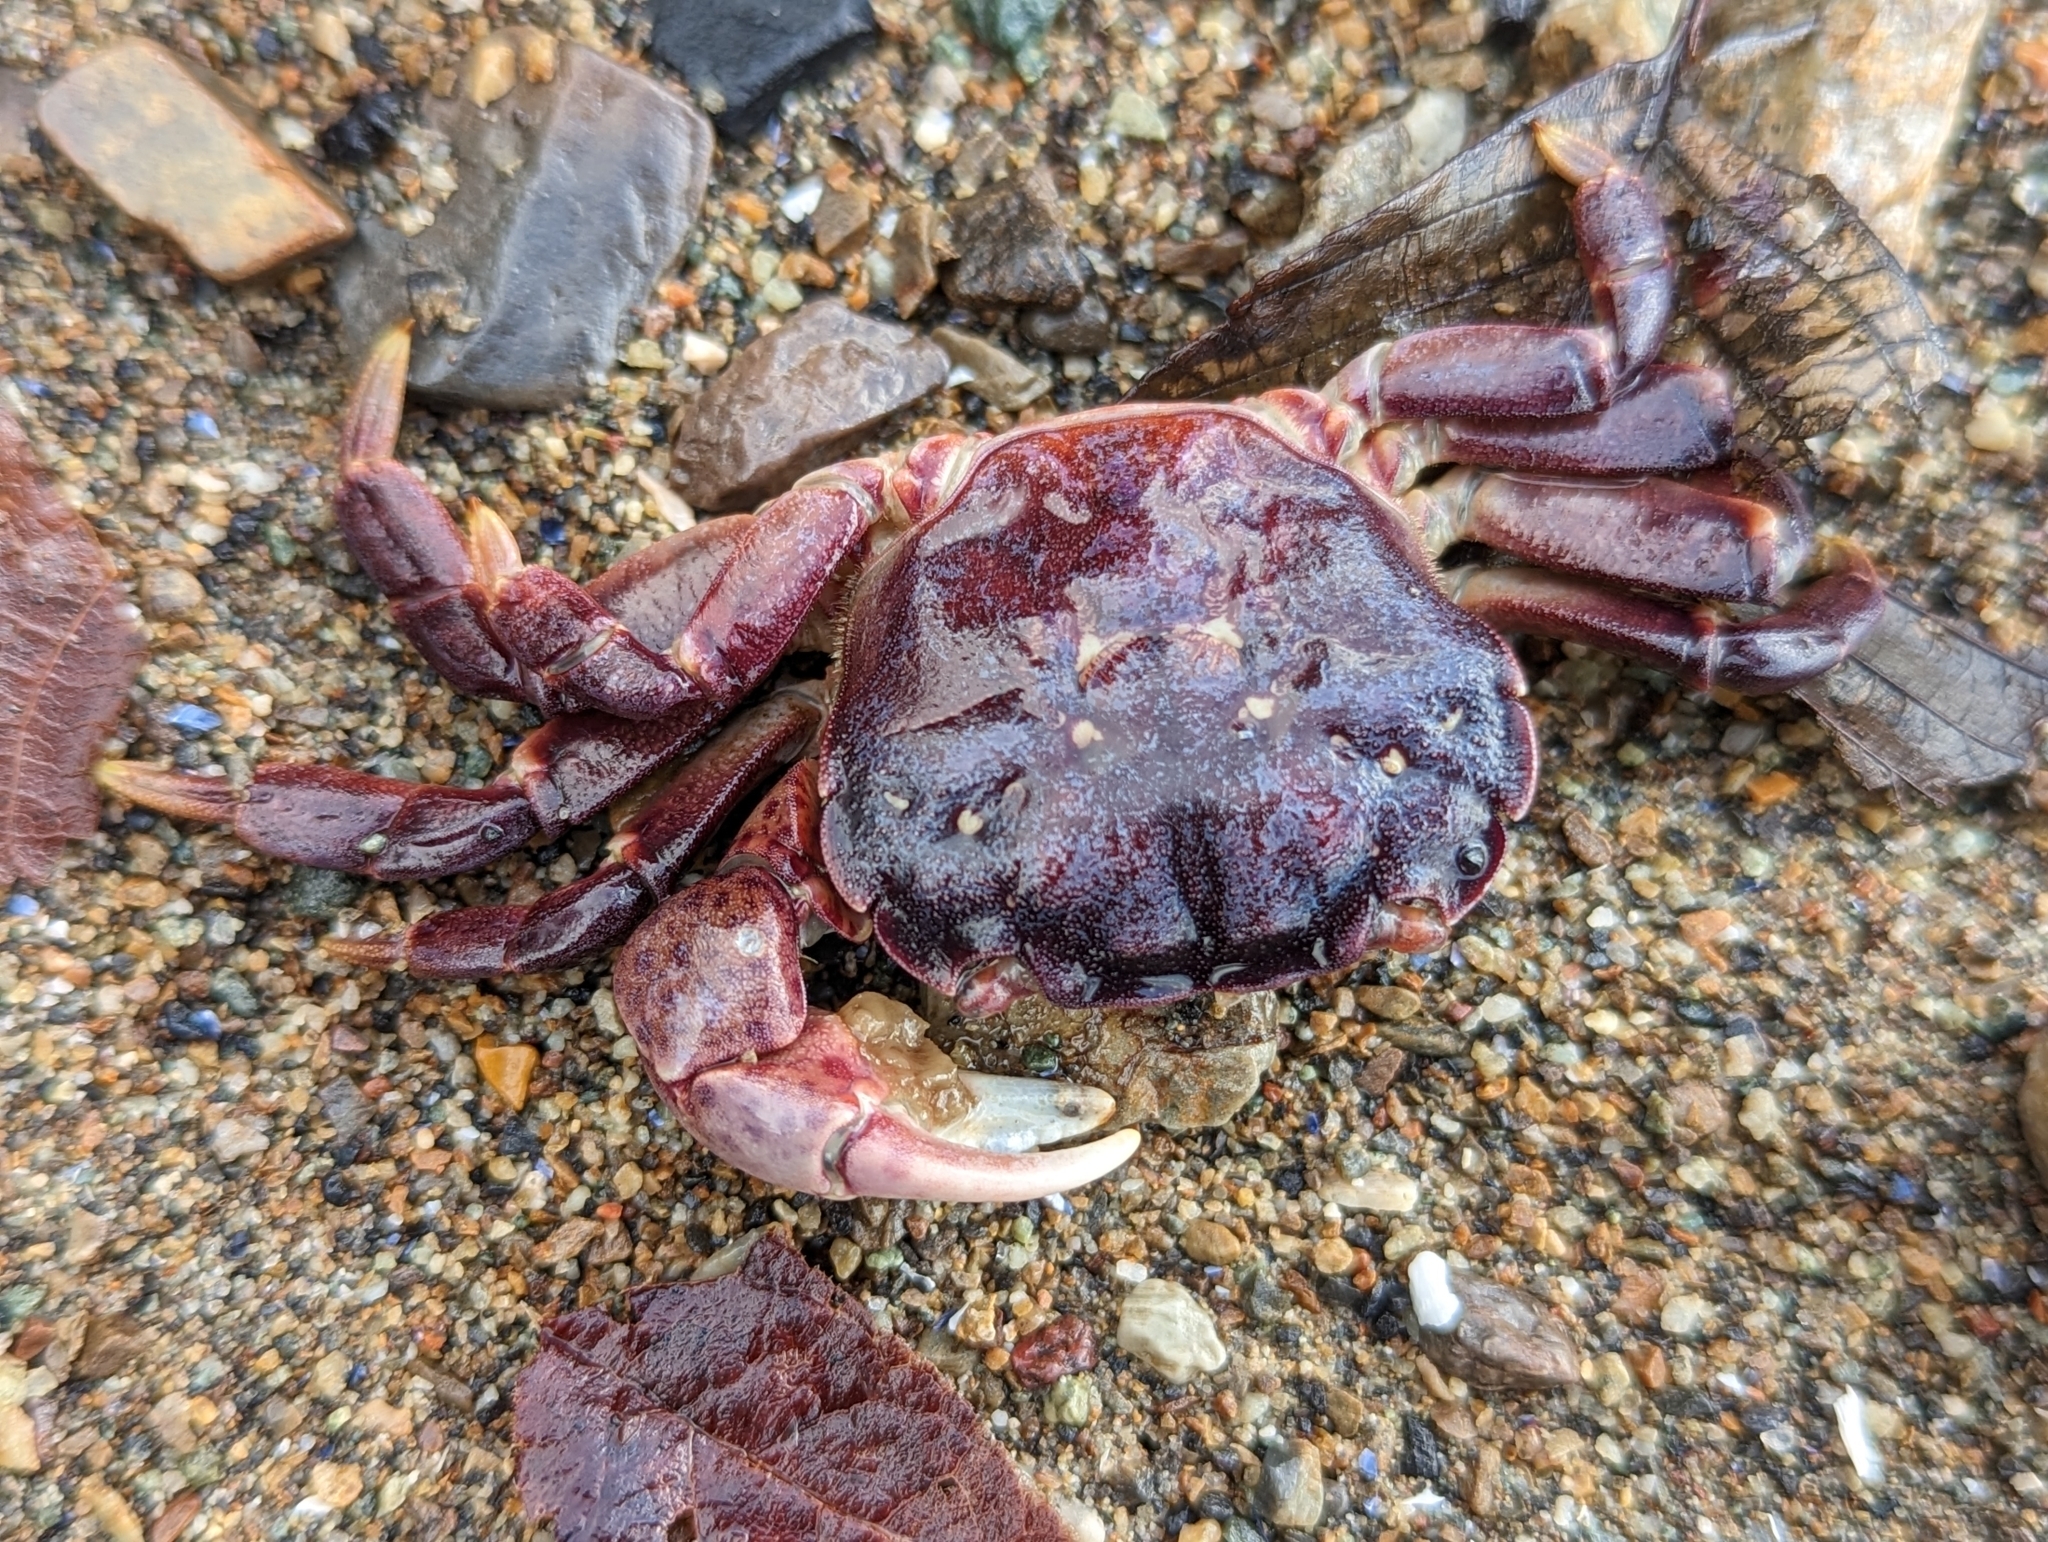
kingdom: Animalia
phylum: Arthropoda
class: Malacostraca
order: Decapoda
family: Varunidae
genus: Hemigrapsus
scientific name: Hemigrapsus nudus
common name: Purple shore crab
